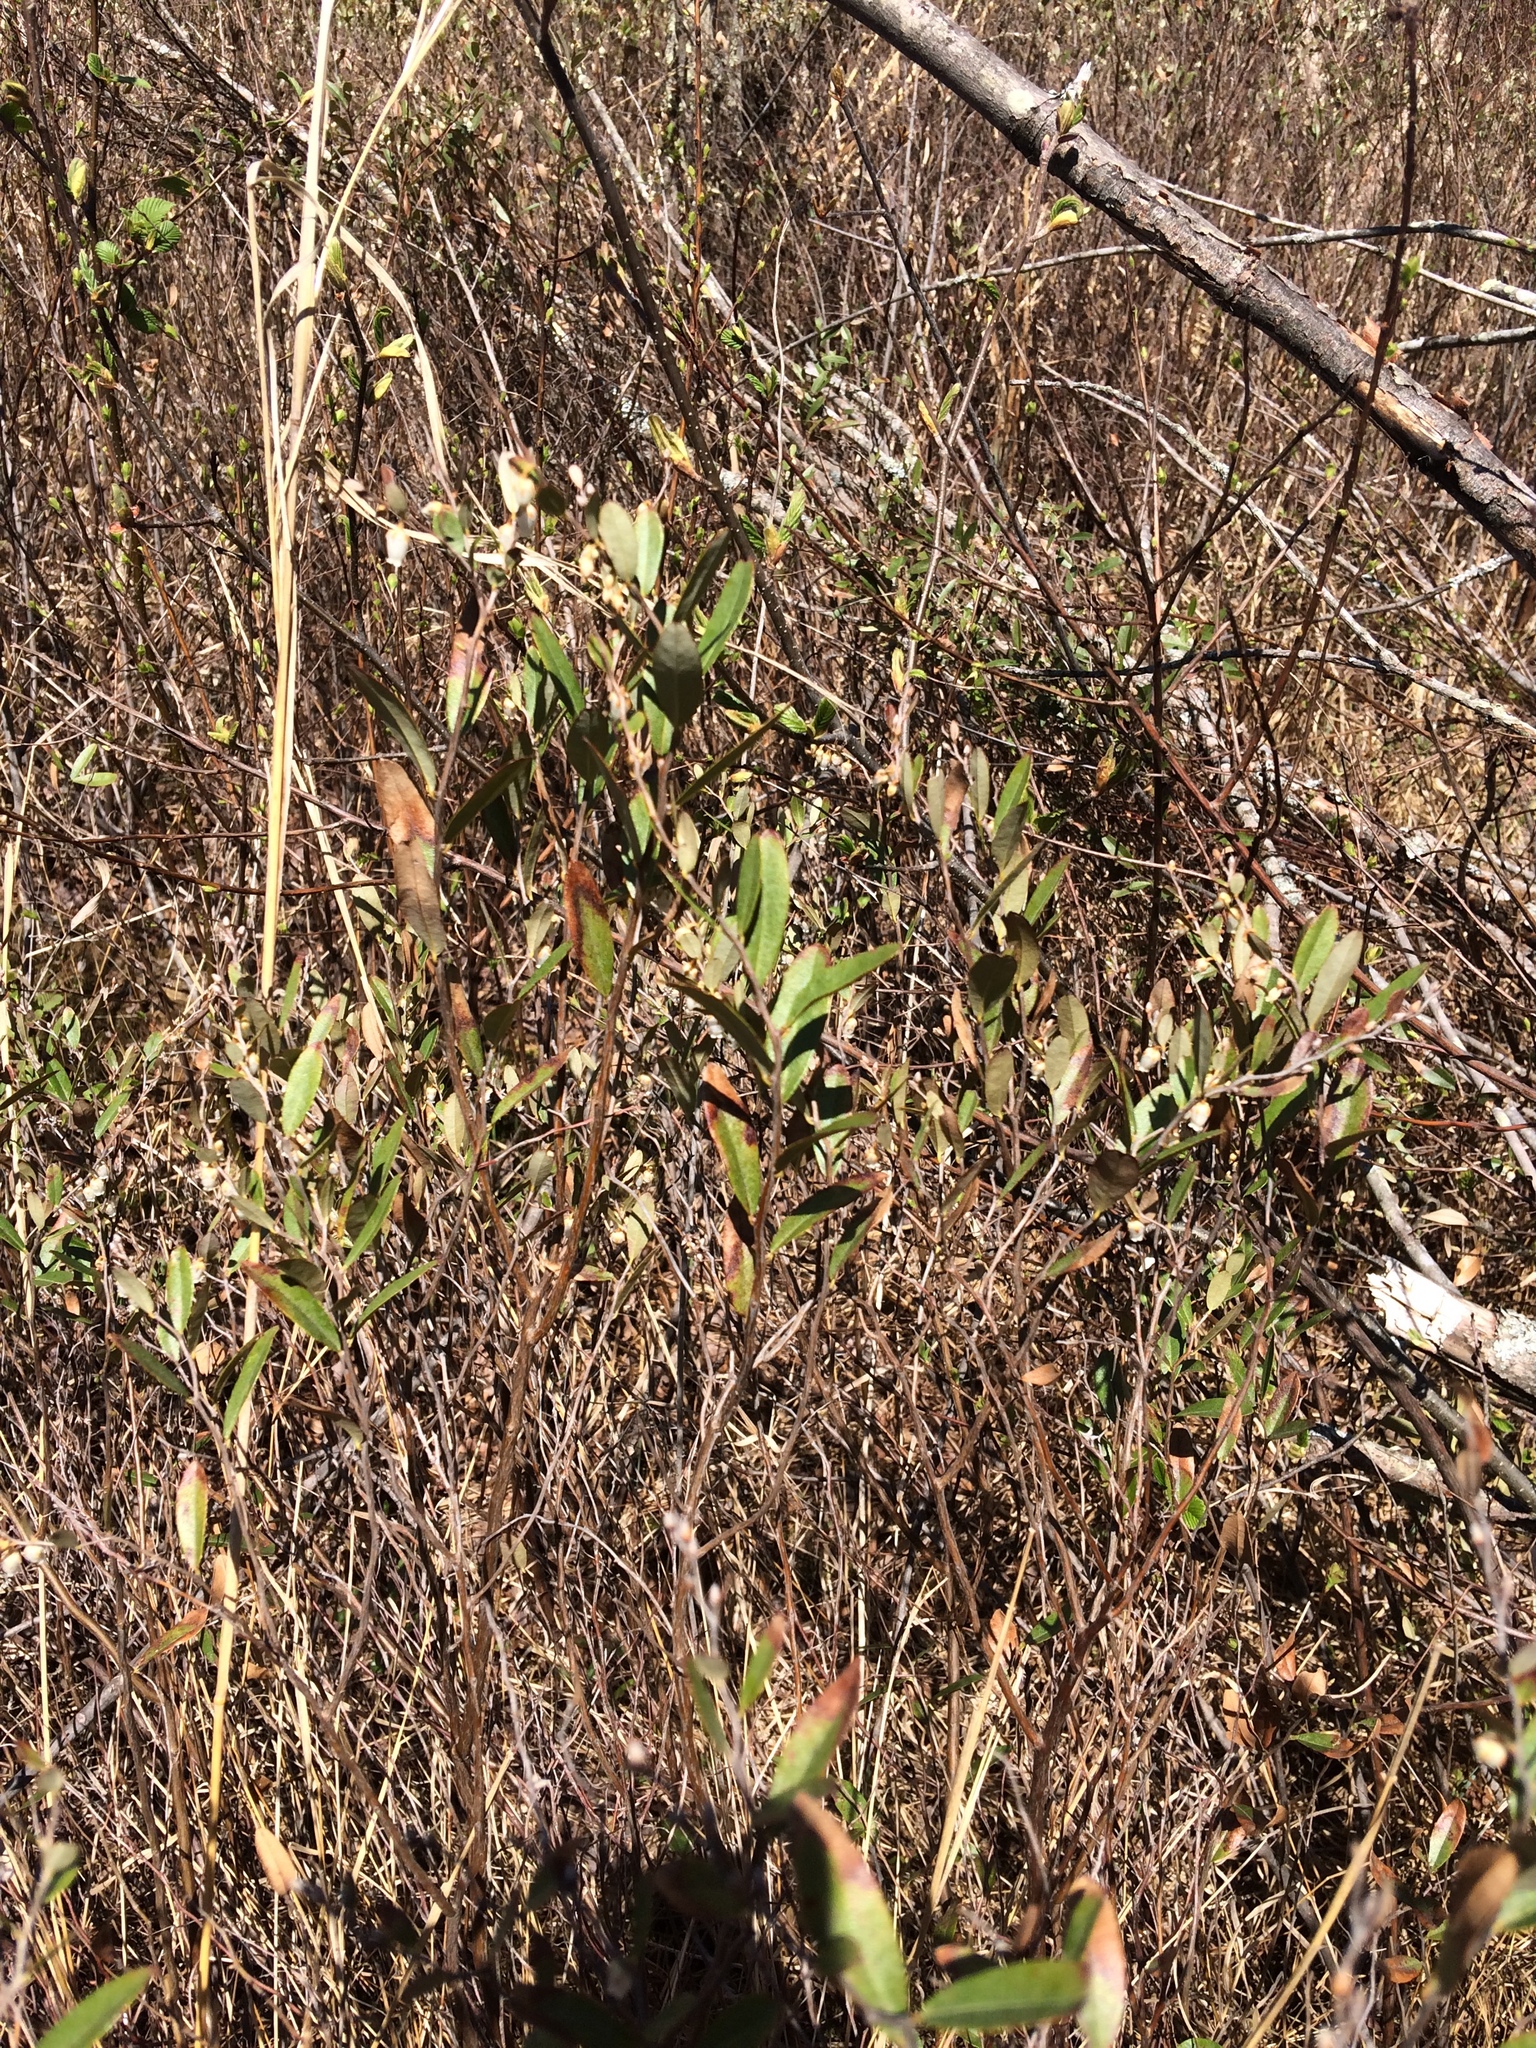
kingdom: Plantae
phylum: Tracheophyta
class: Magnoliopsida
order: Ericales
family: Ericaceae
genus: Chamaedaphne
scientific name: Chamaedaphne calyculata
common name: Leatherleaf
